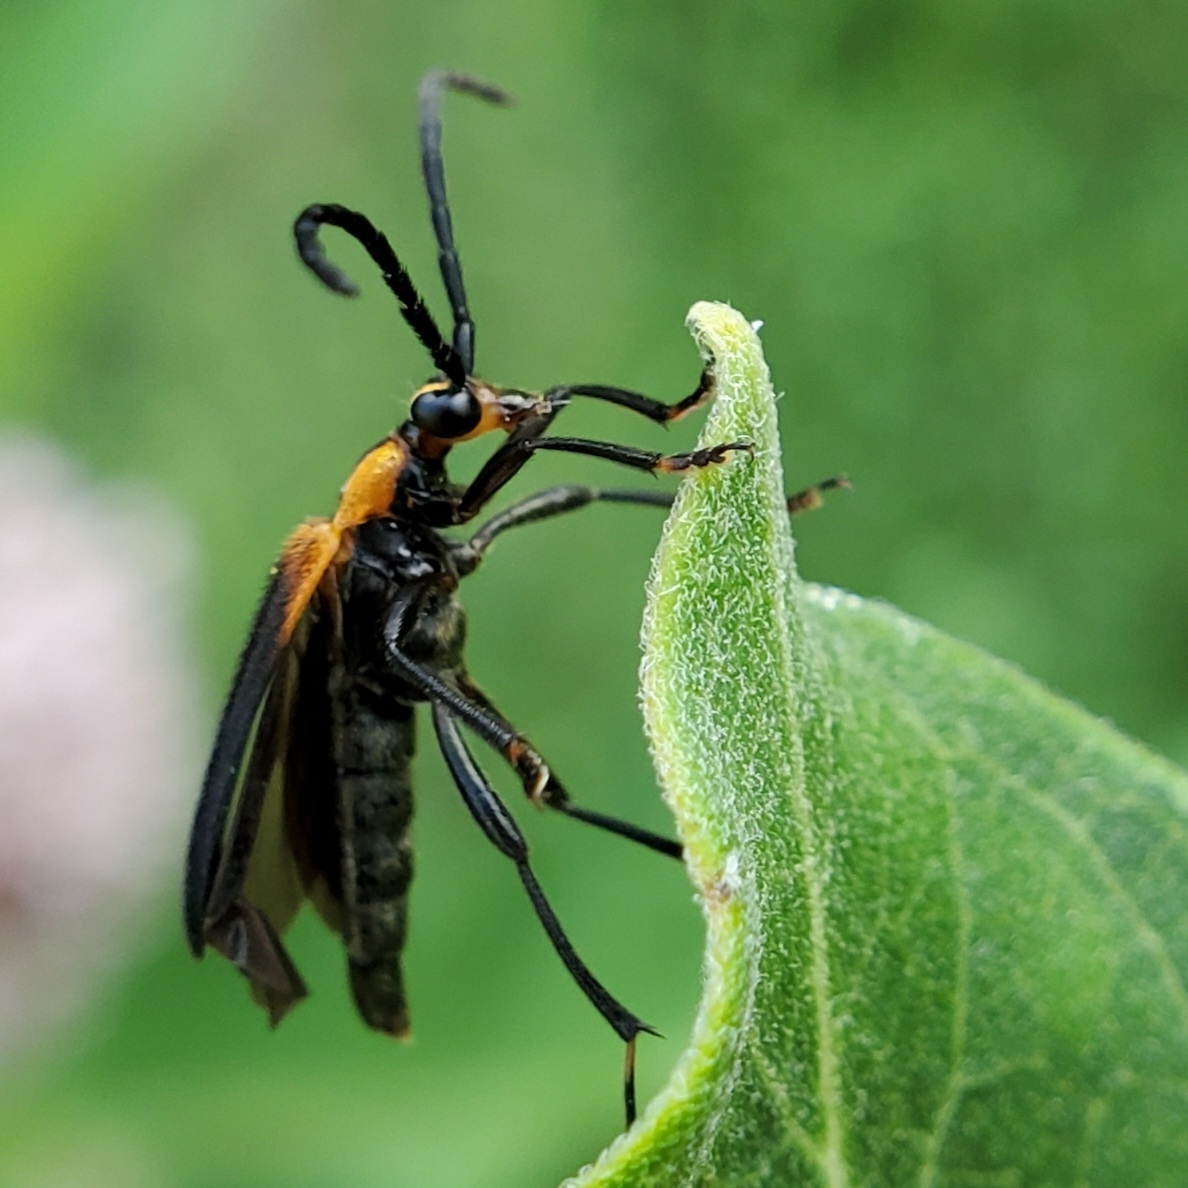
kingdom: Animalia
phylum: Arthropoda
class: Insecta
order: Coleoptera
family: Cerambycidae
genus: Lycochoriolaus
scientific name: Lycochoriolaus lateralis
